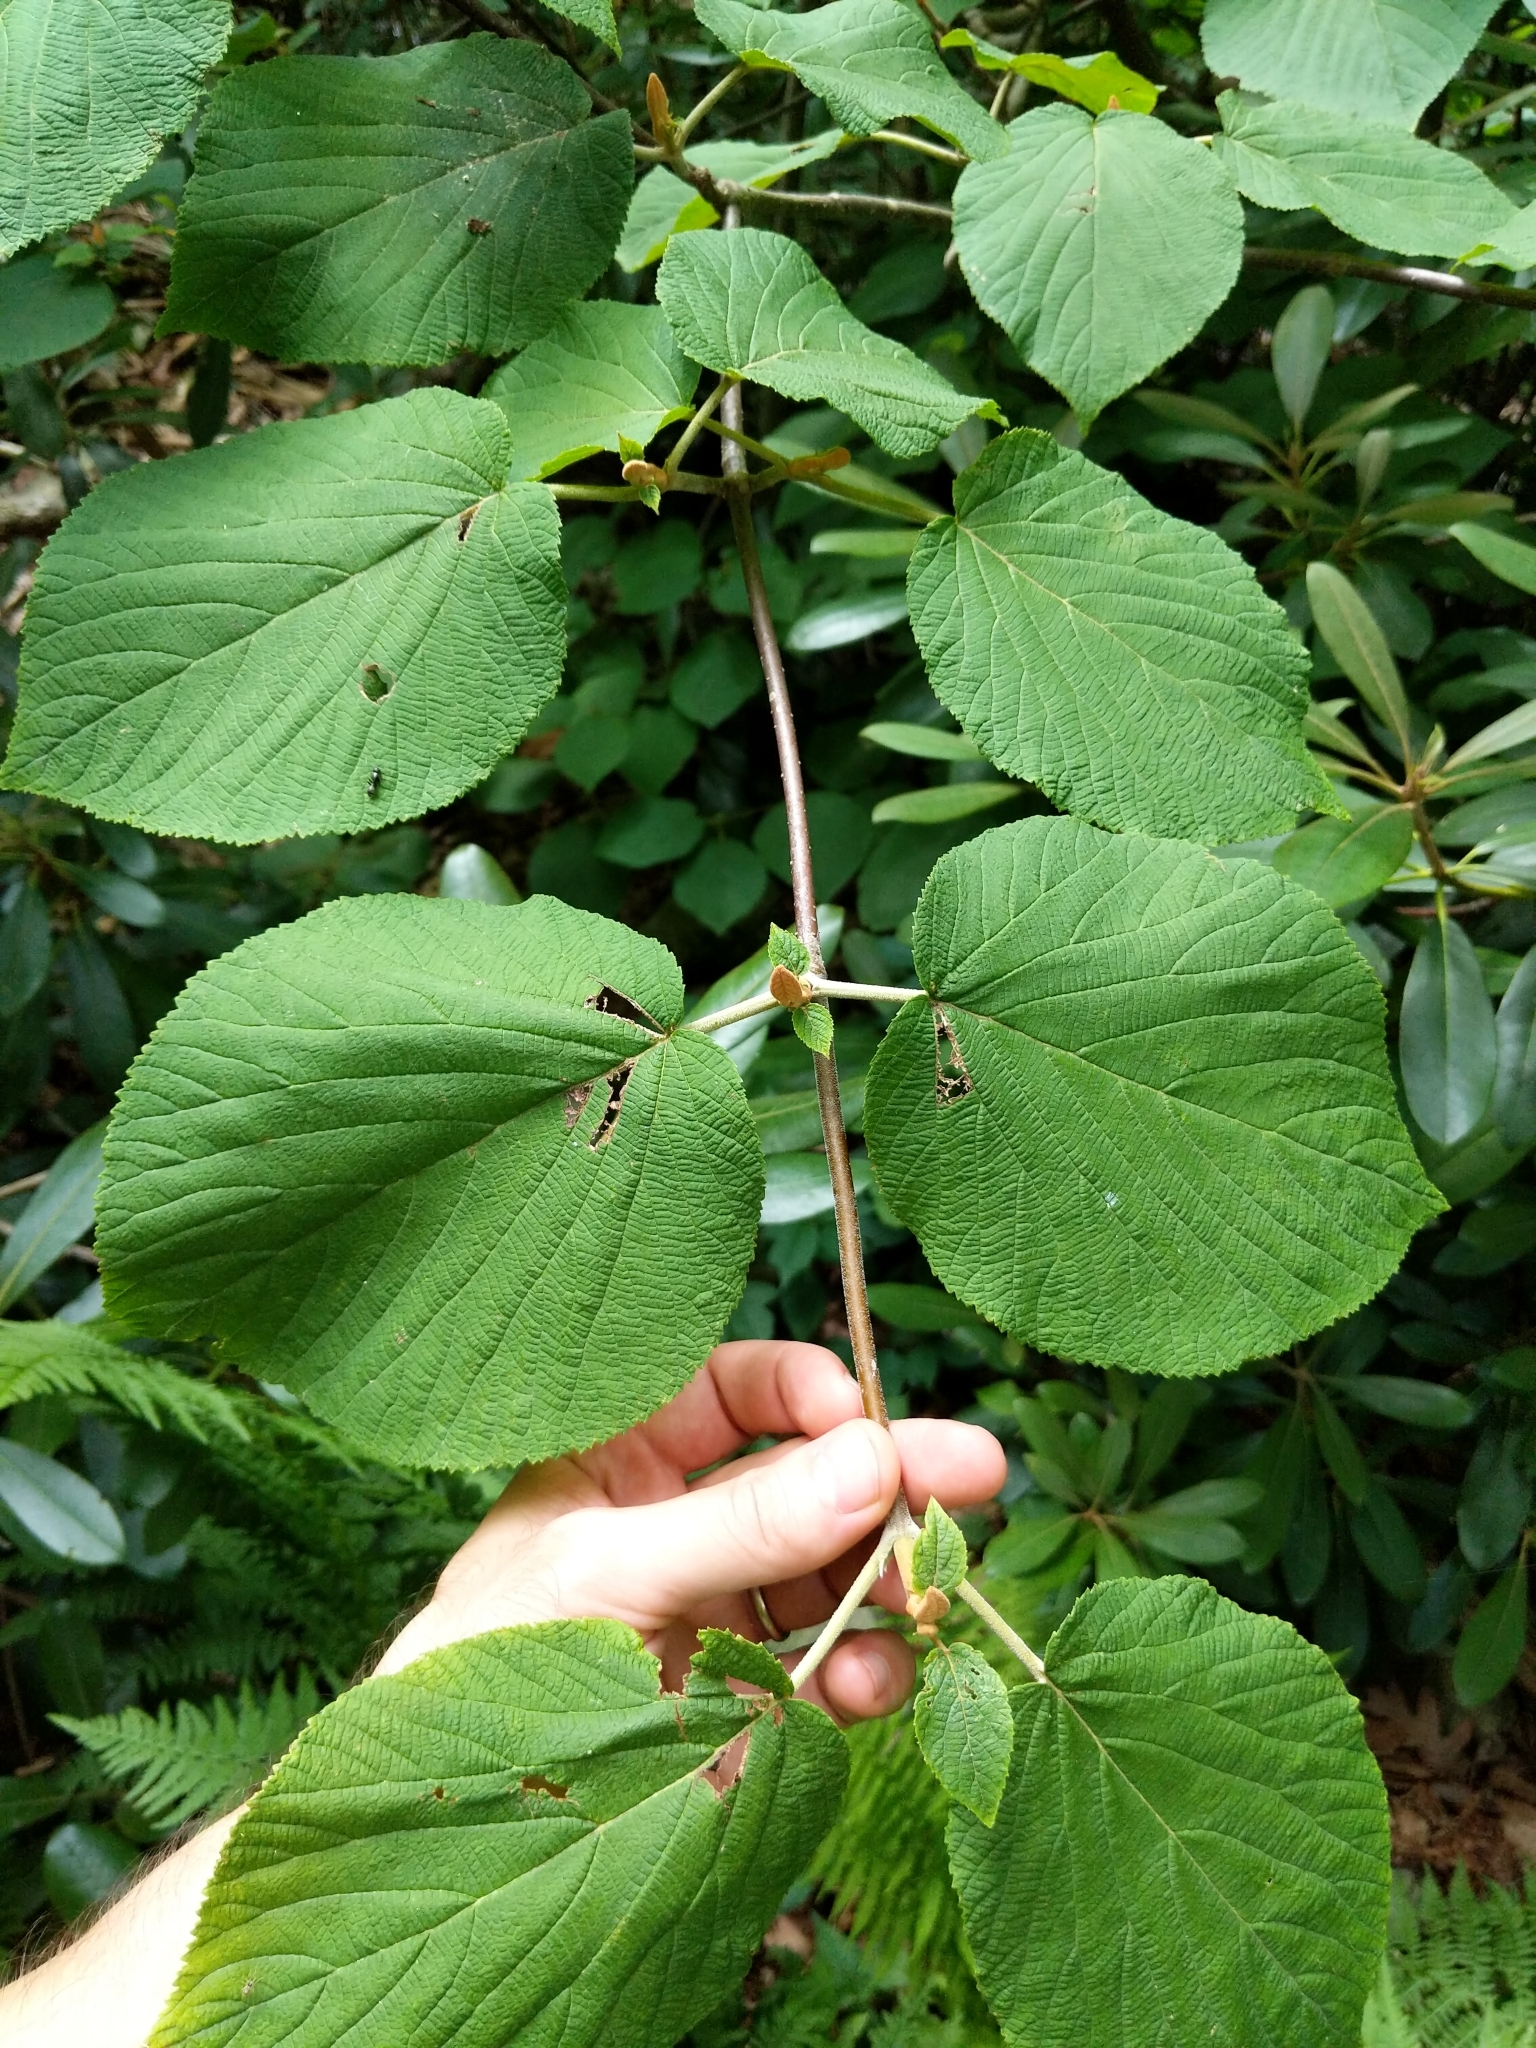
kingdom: Plantae
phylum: Tracheophyta
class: Magnoliopsida
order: Dipsacales
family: Viburnaceae
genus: Viburnum
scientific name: Viburnum lantanoides
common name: Hobblebush
